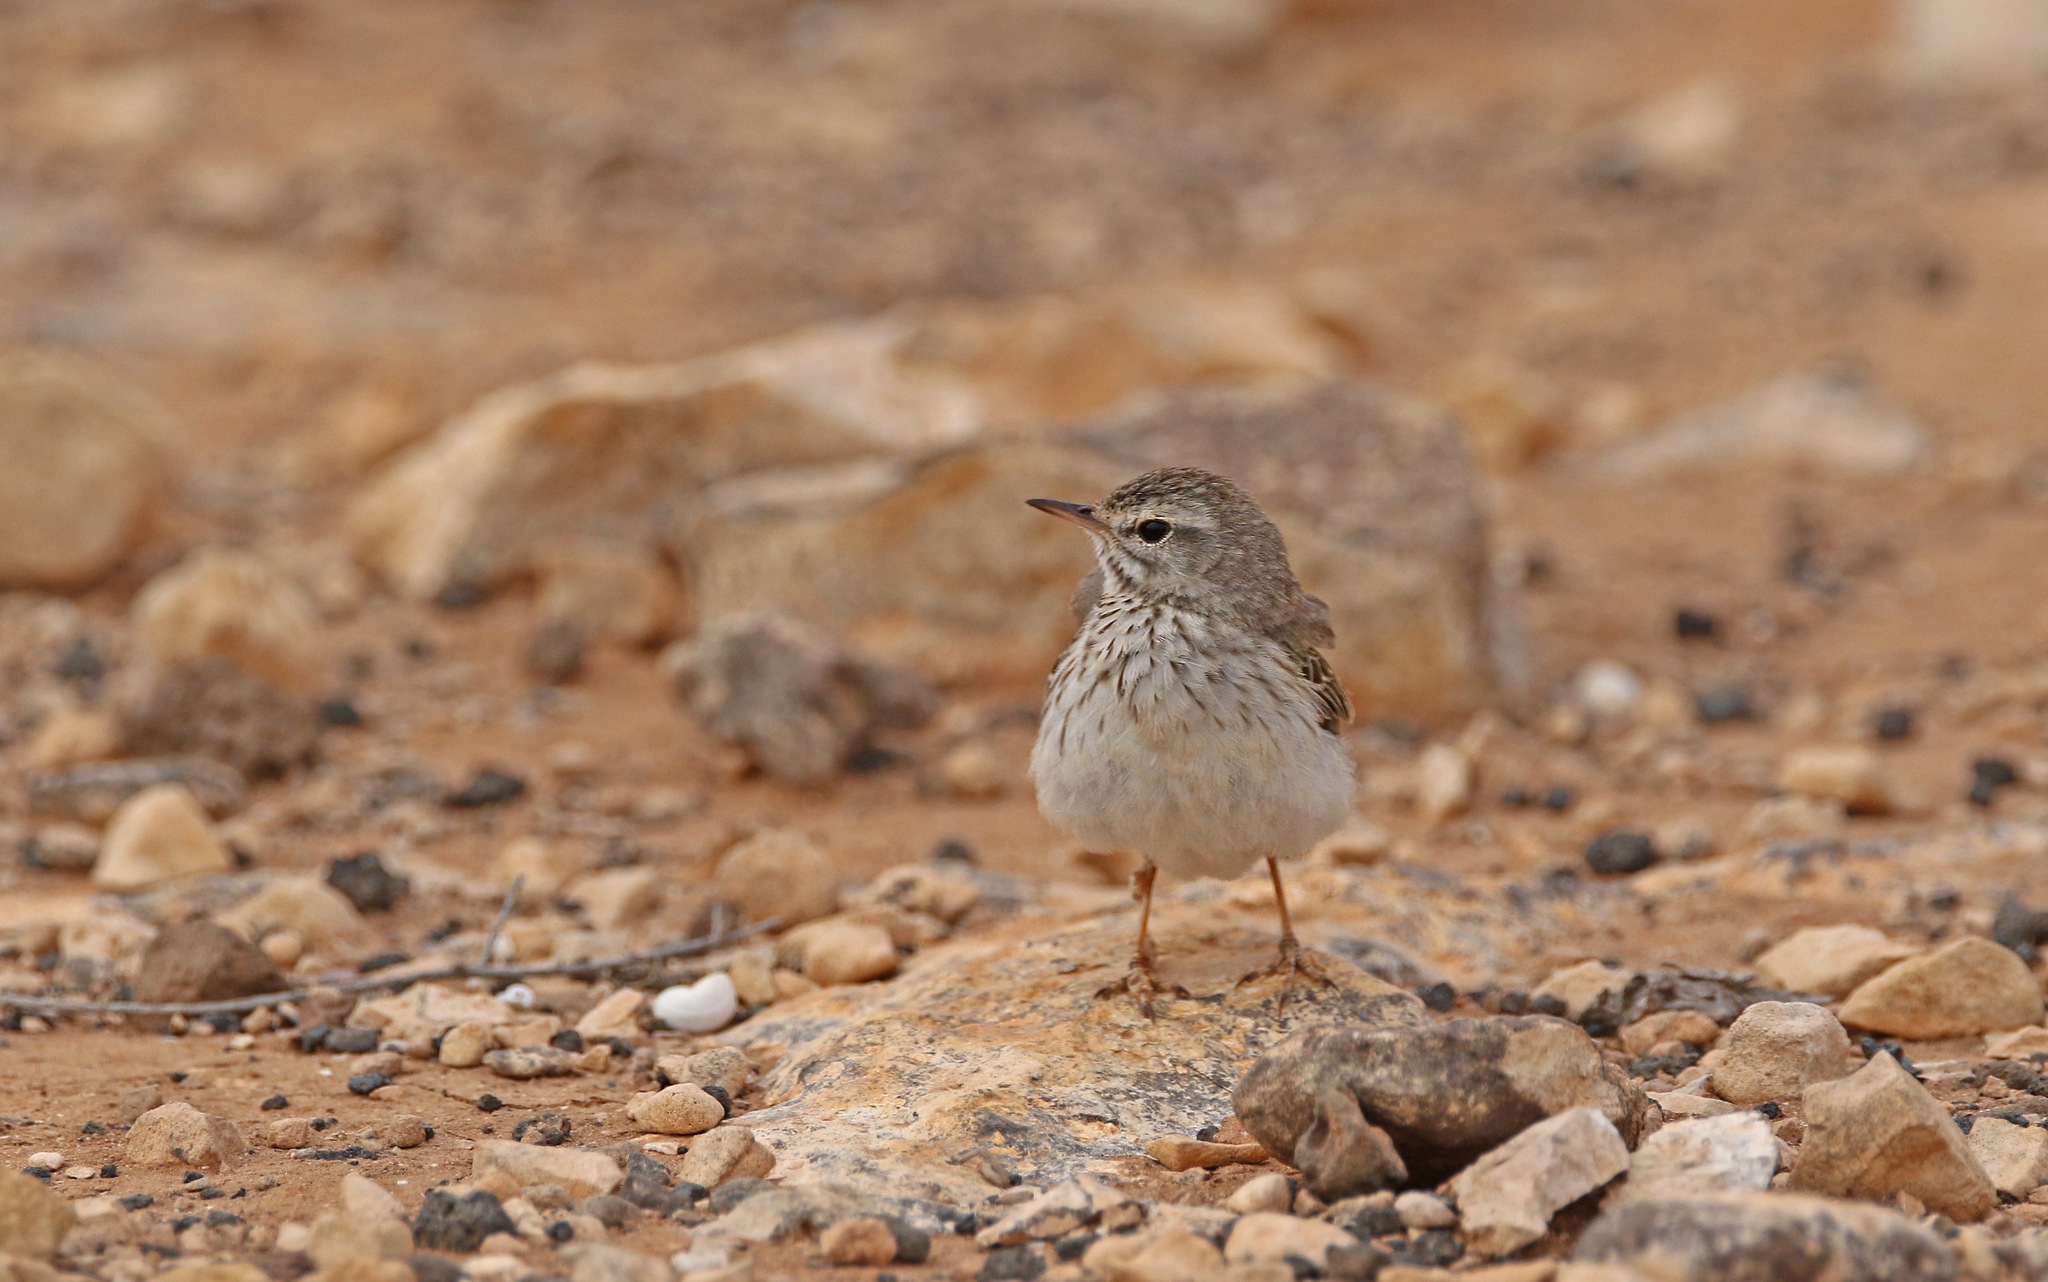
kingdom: Animalia
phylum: Chordata
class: Aves
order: Passeriformes
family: Motacillidae
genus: Anthus
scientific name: Anthus berthelotii
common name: Berthelot's pipit
